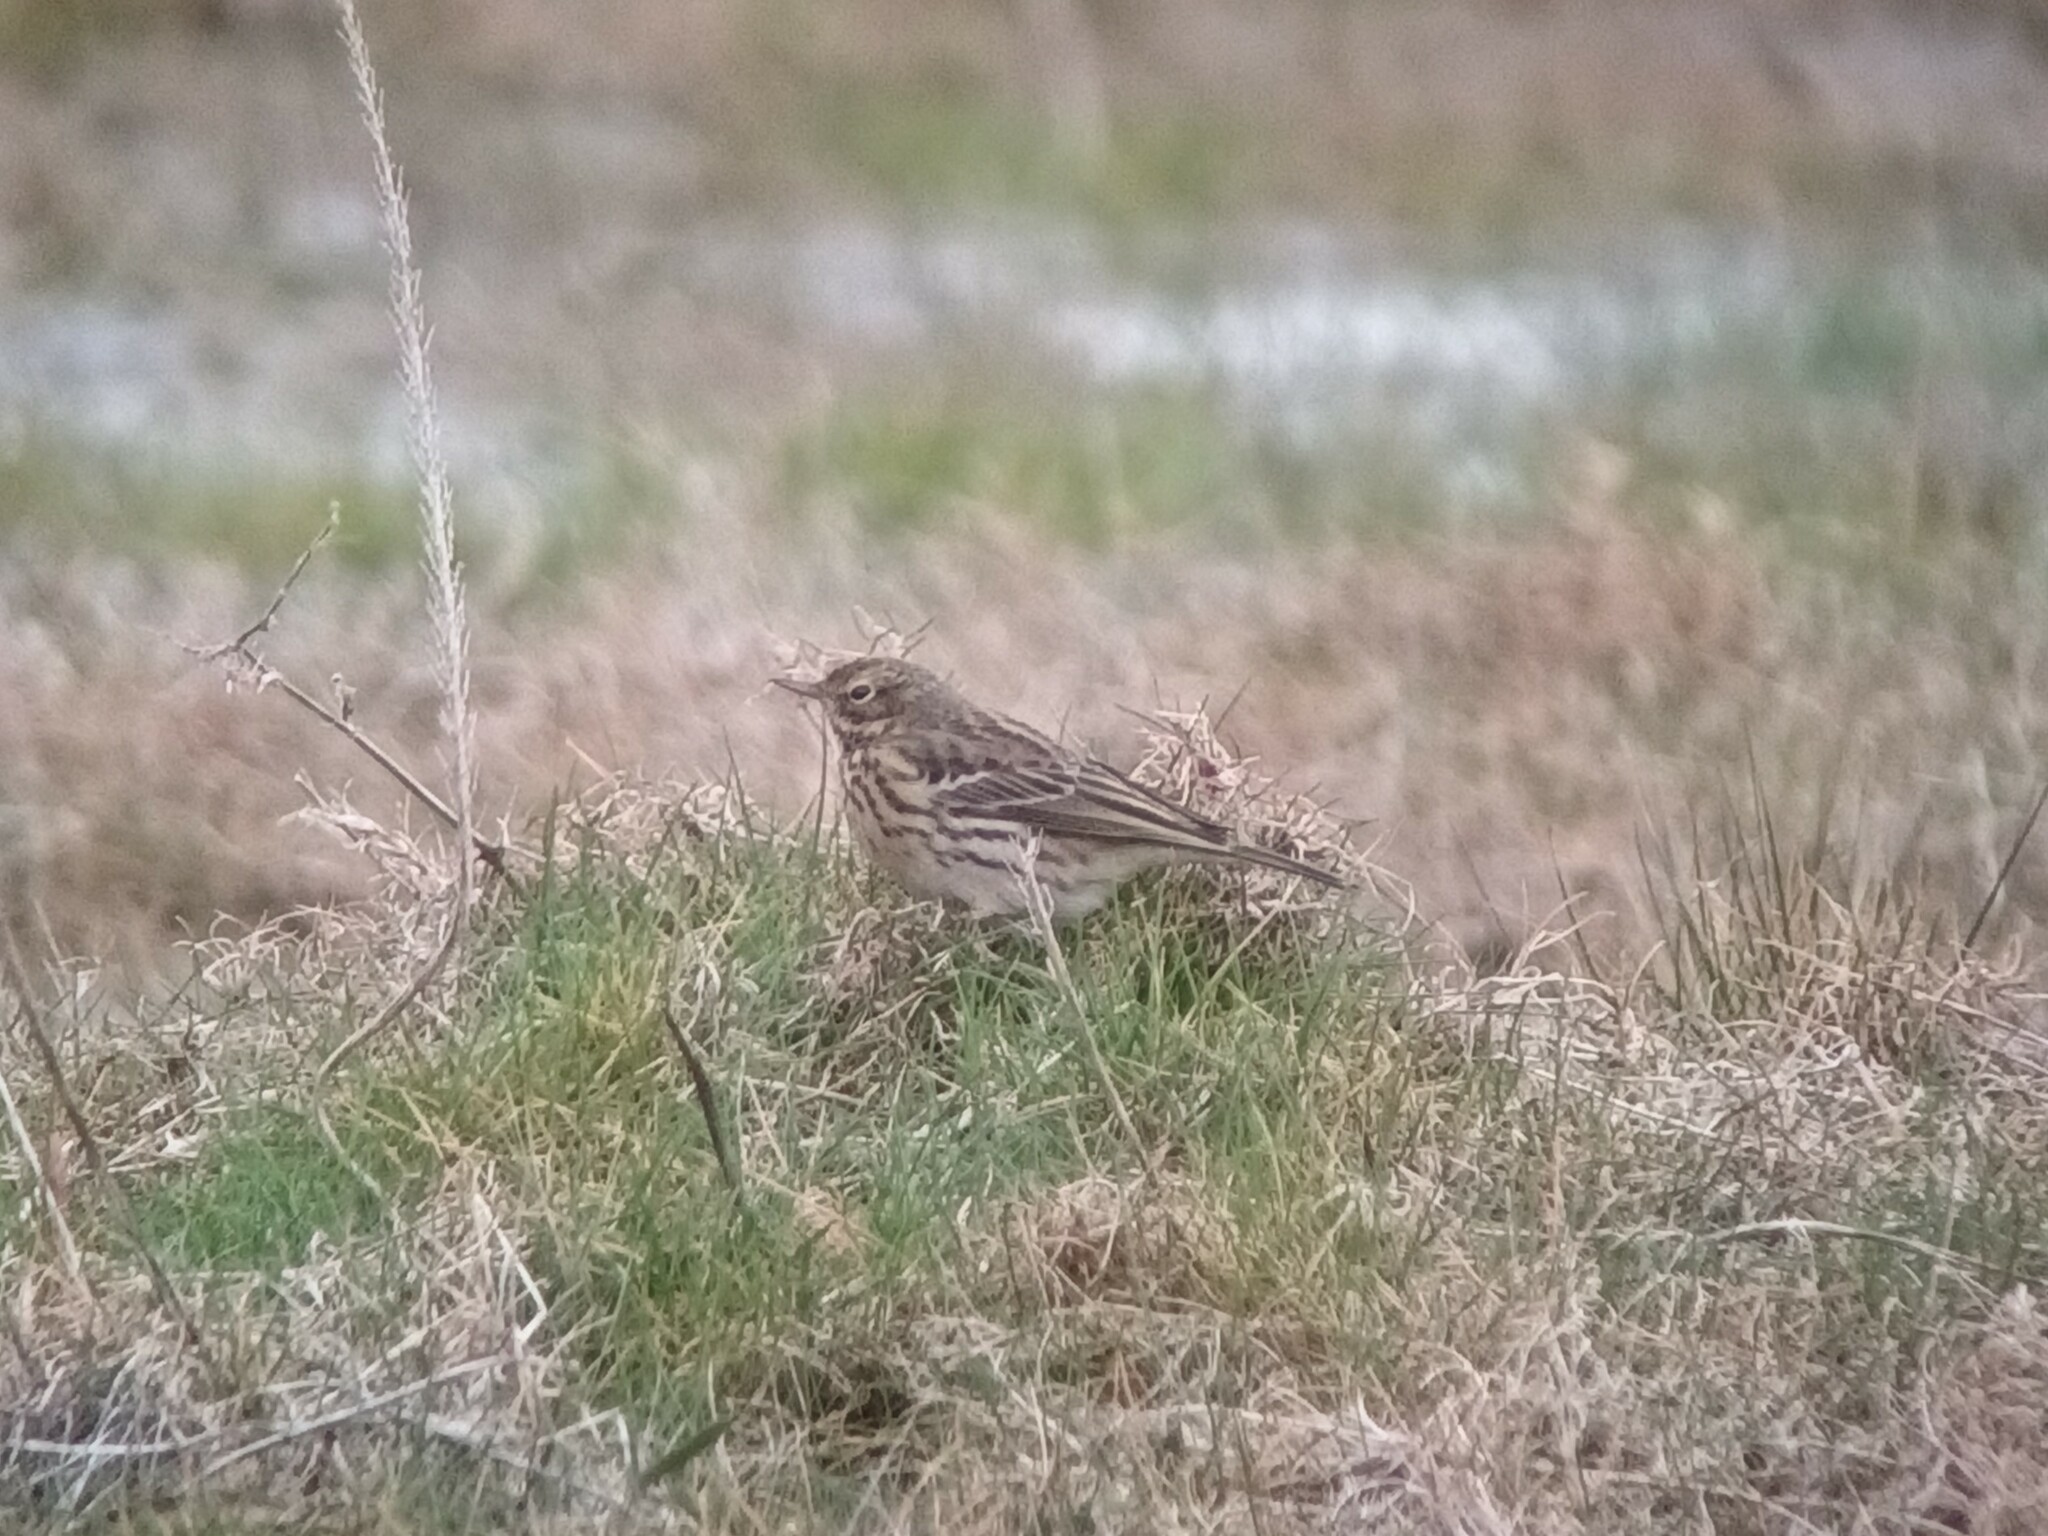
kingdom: Animalia
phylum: Chordata
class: Aves
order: Passeriformes
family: Motacillidae
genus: Anthus
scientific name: Anthus pratensis
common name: Meadow pipit
